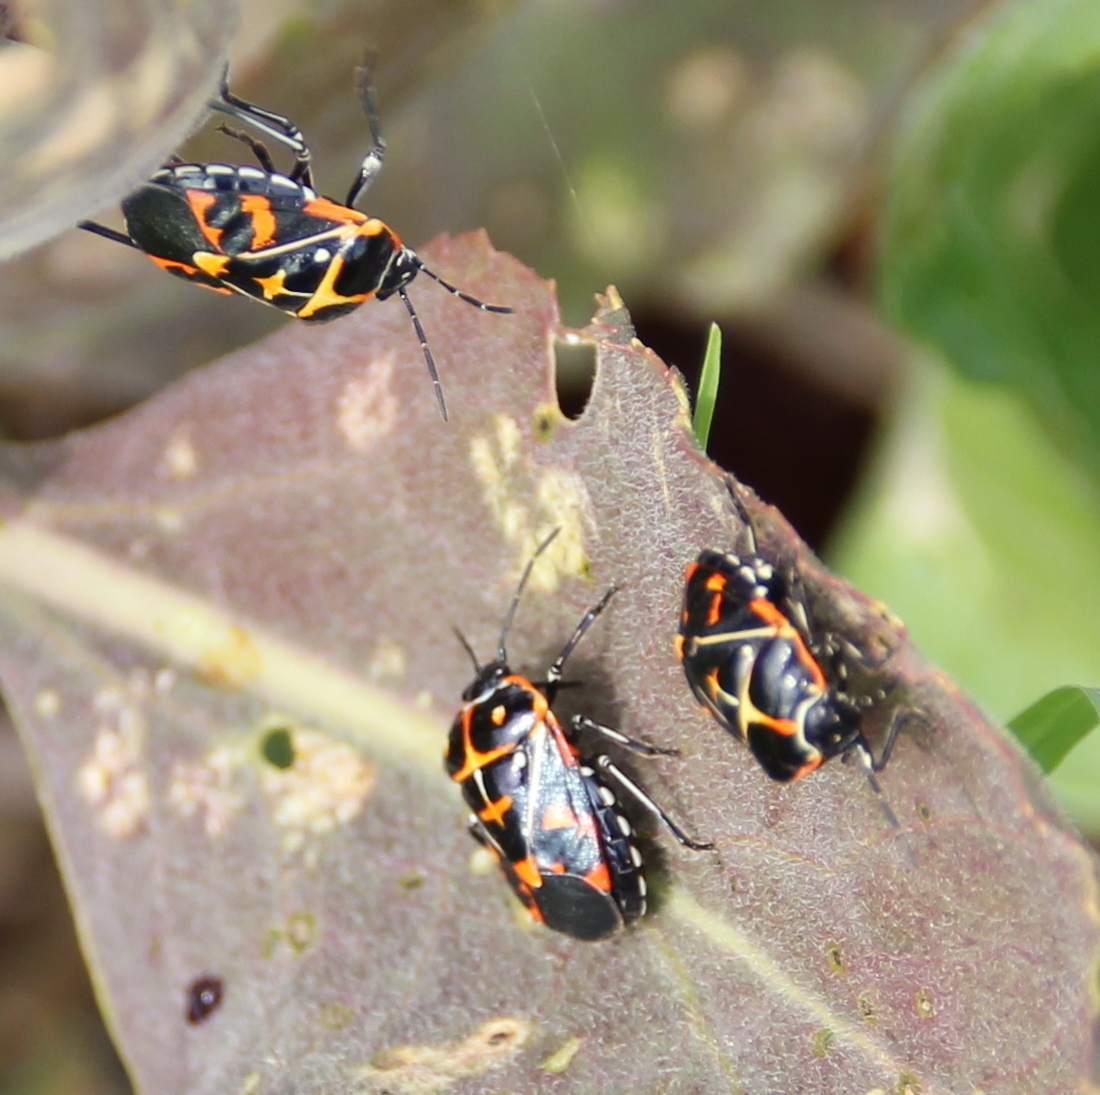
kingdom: Animalia
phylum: Arthropoda
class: Insecta
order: Hemiptera
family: Pentatomidae
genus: Murgantia
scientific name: Murgantia histrionica
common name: Harlequin bug
